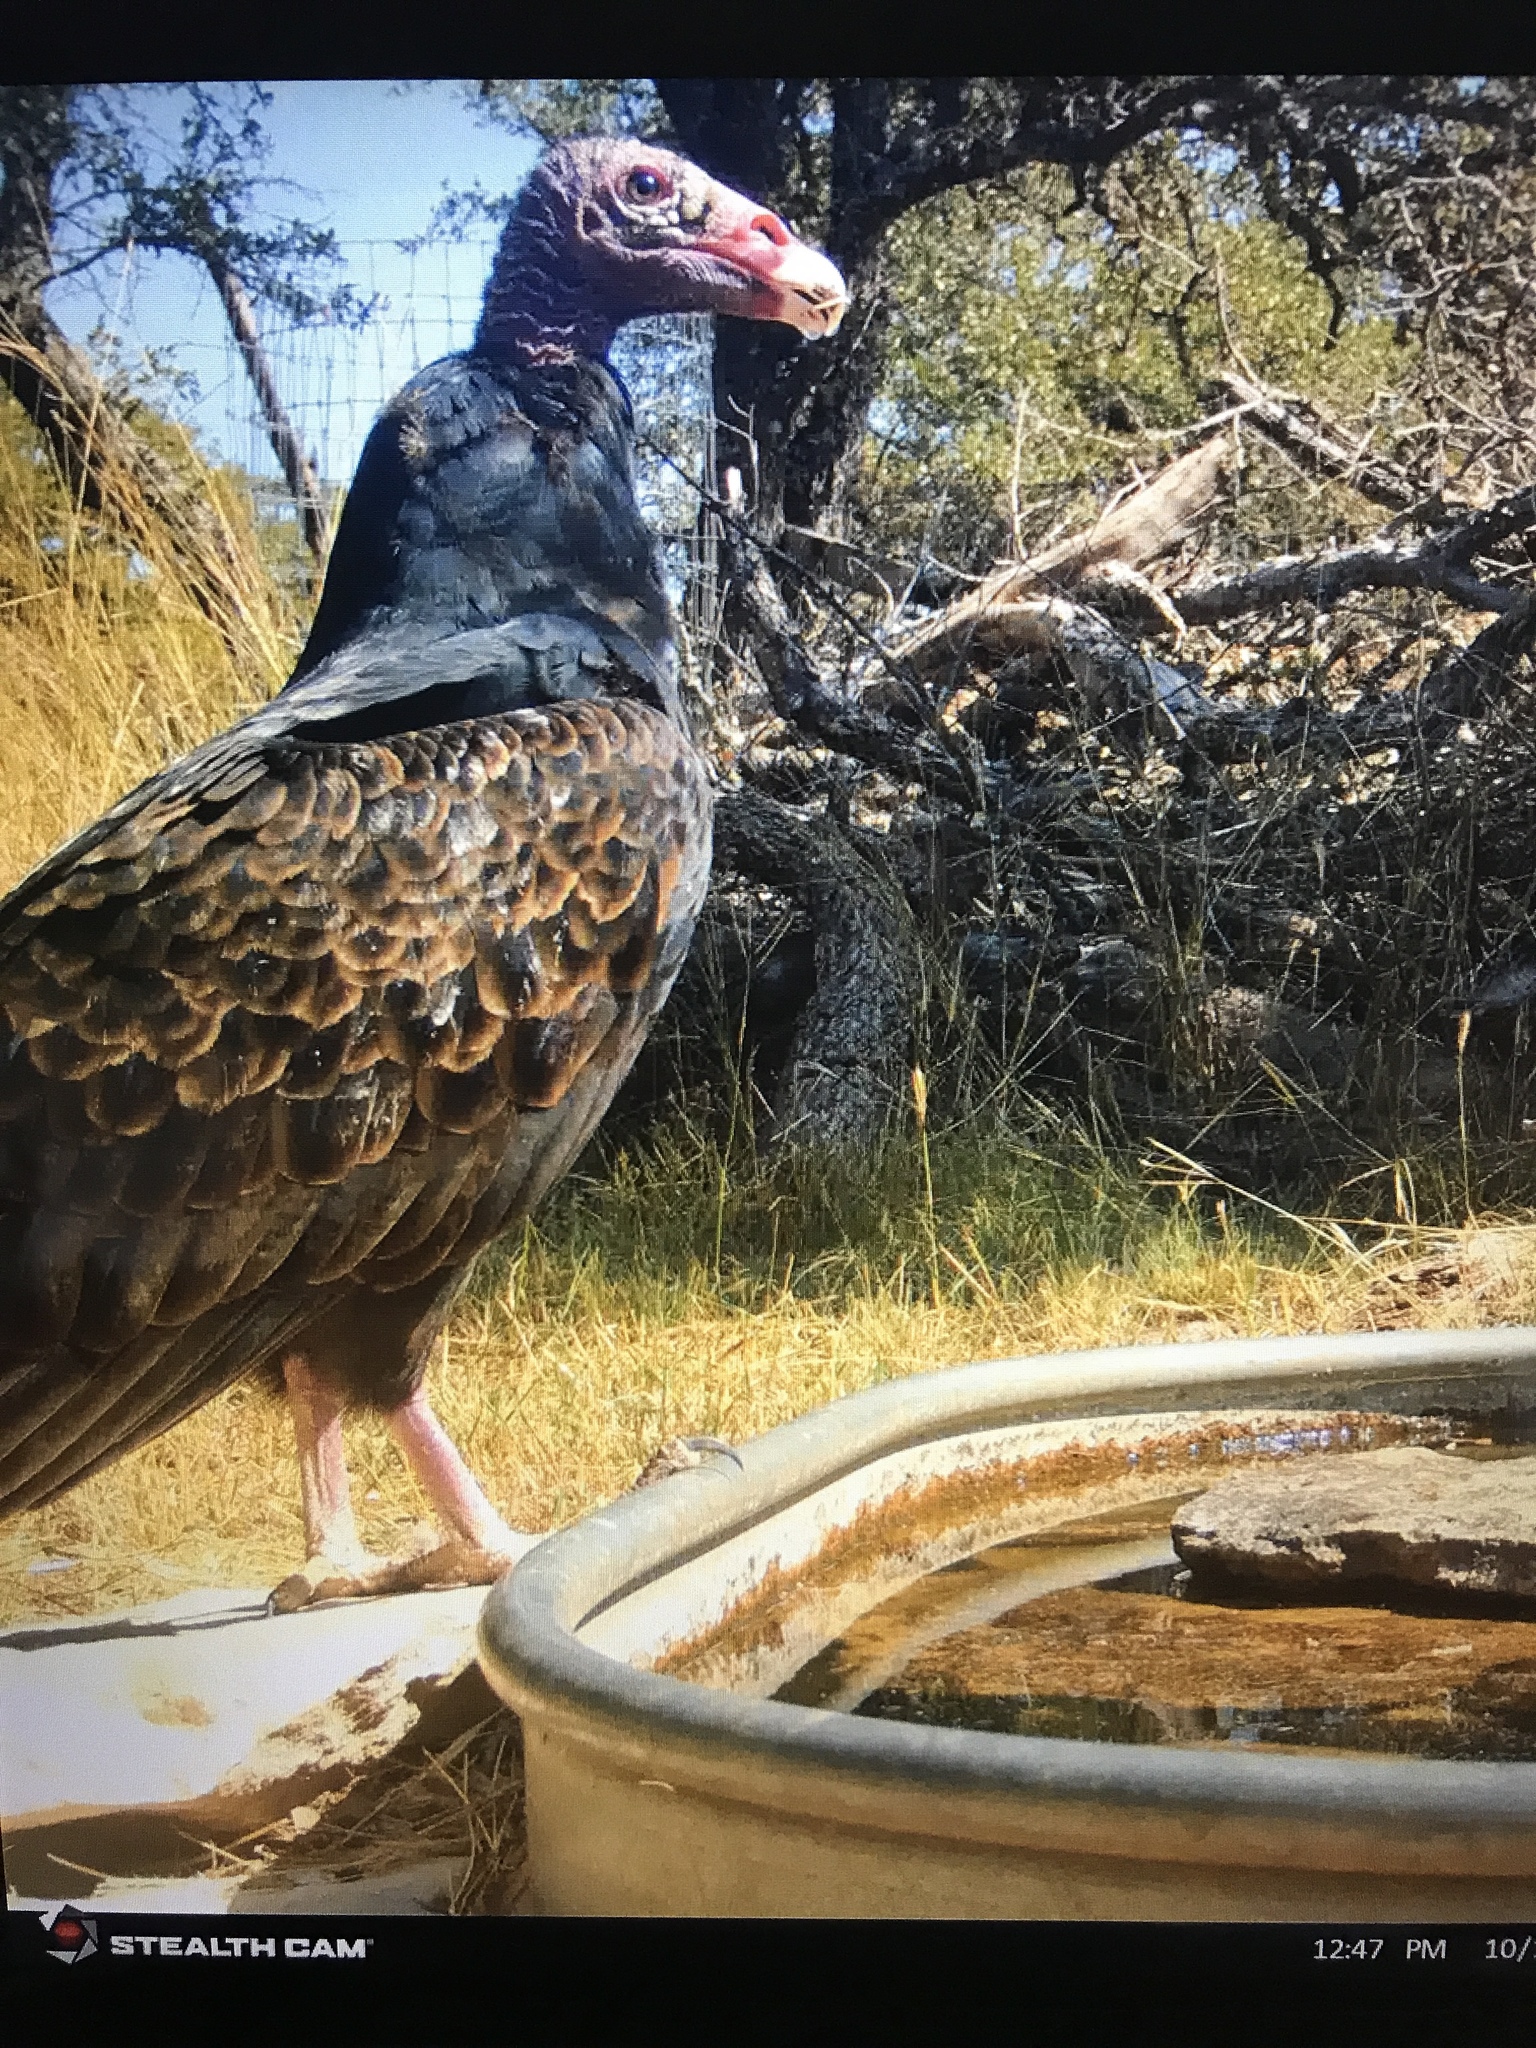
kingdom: Animalia
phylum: Chordata
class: Aves
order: Accipitriformes
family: Cathartidae
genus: Cathartes
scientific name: Cathartes aura
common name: Turkey vulture
